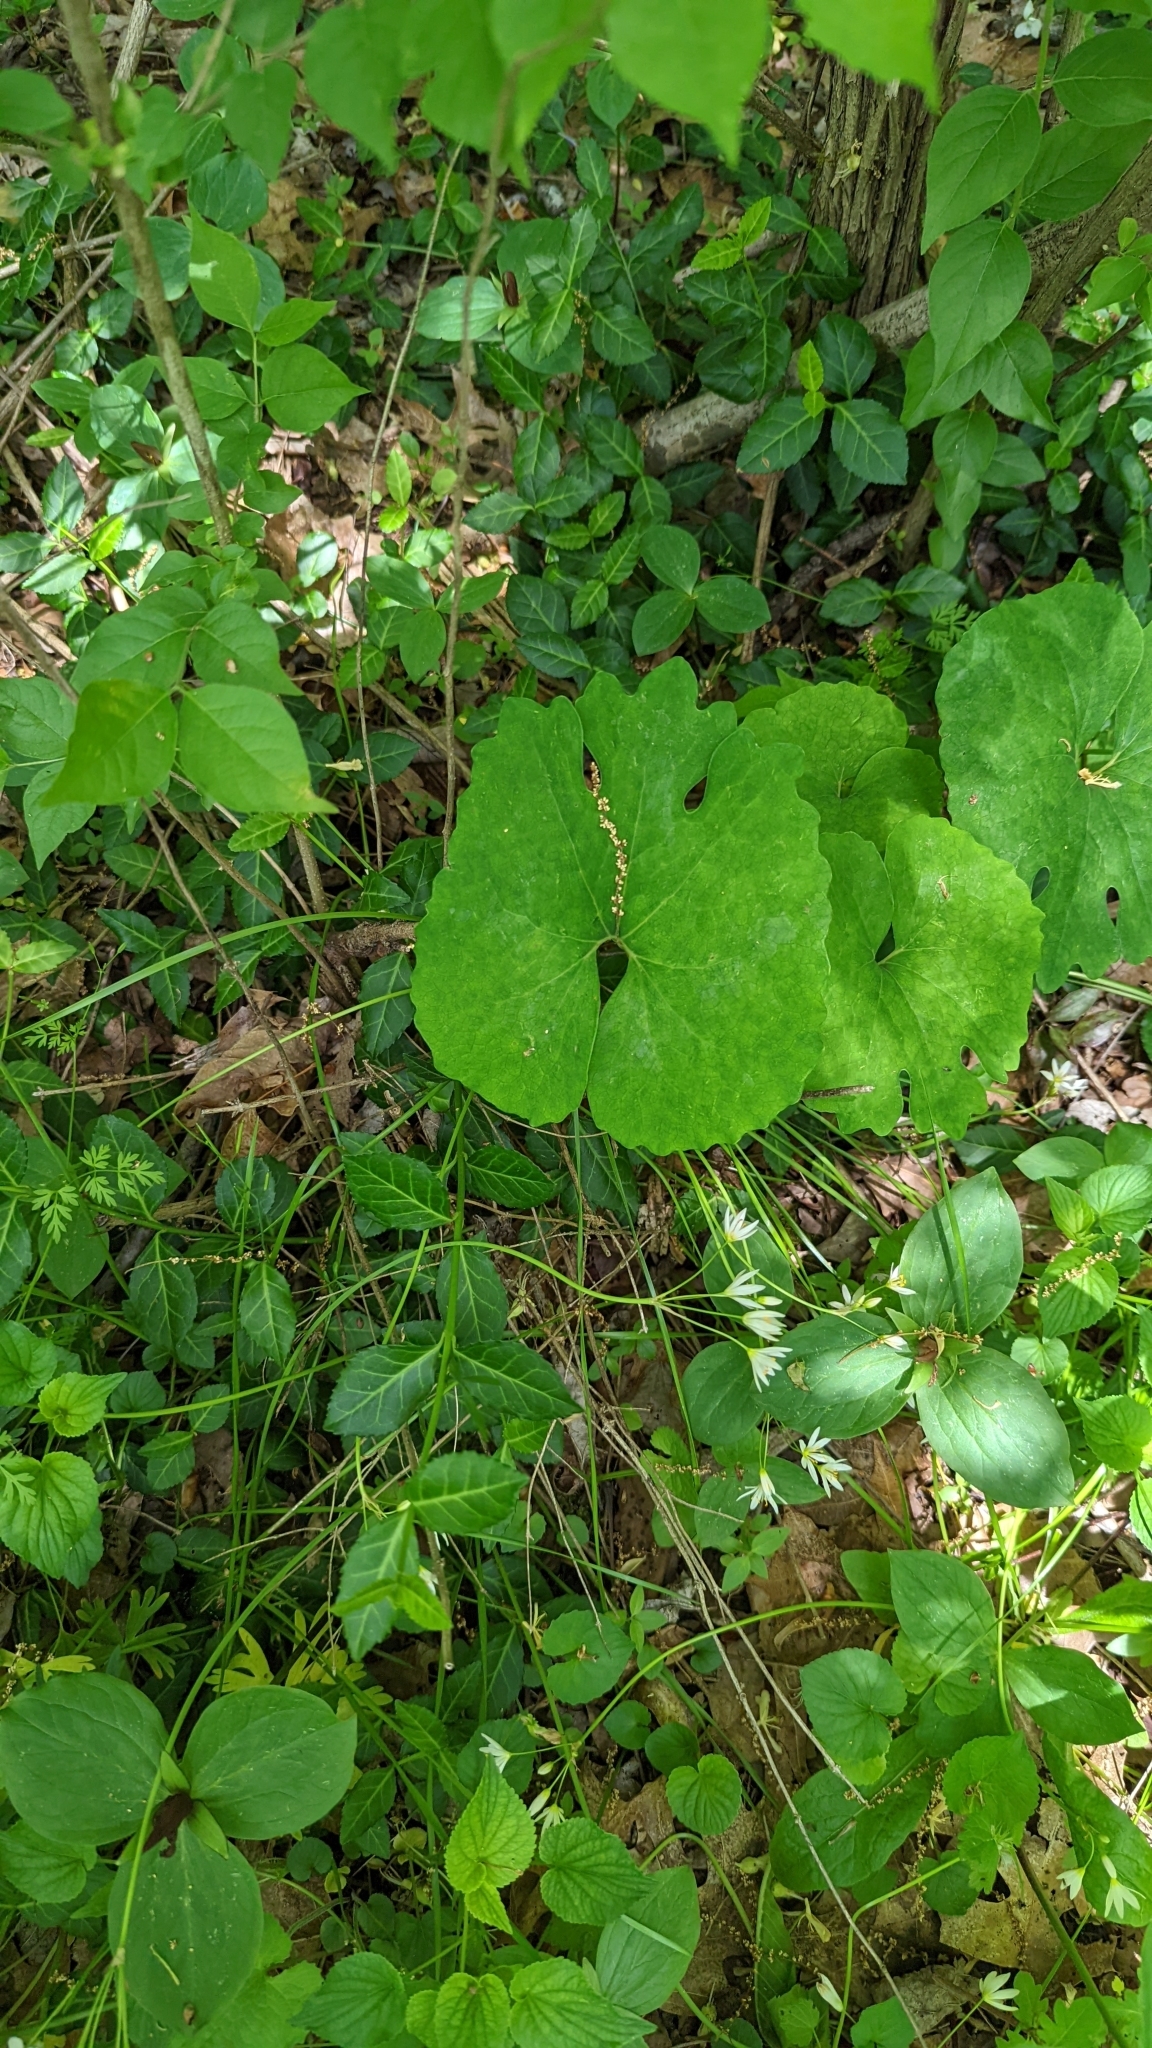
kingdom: Plantae
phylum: Tracheophyta
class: Magnoliopsida
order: Ranunculales
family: Papaveraceae
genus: Sanguinaria
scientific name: Sanguinaria canadensis
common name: Bloodroot
